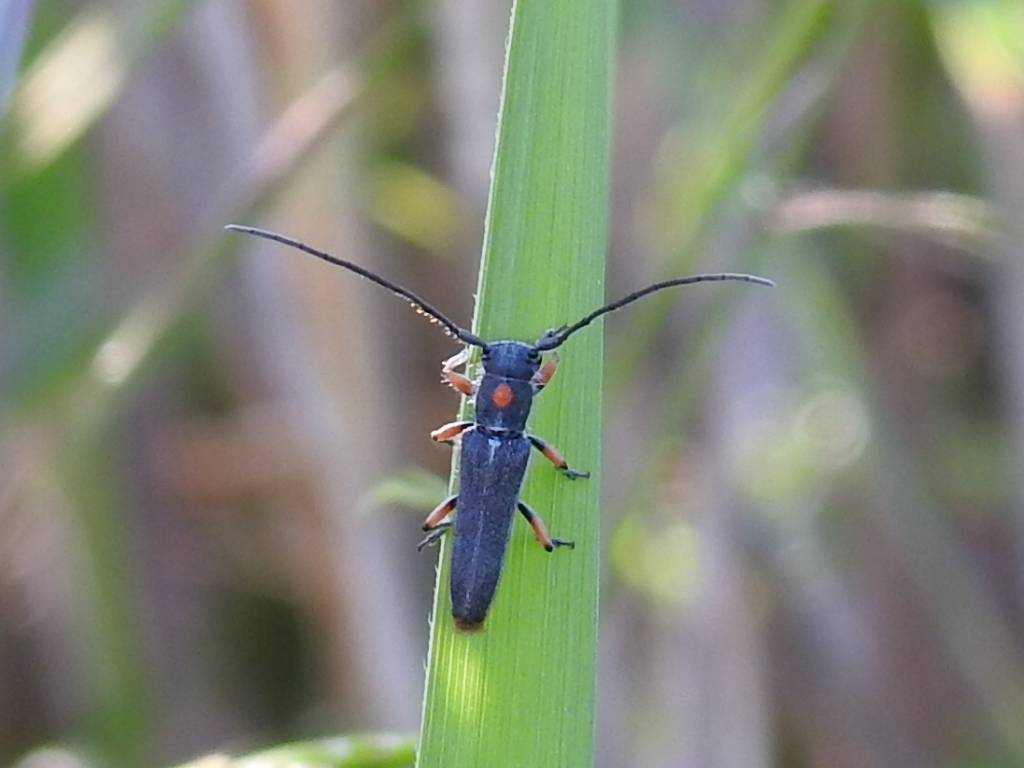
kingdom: Animalia
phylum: Arthropoda
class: Insecta
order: Coleoptera
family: Cerambycidae
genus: Phytoecia
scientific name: Phytoecia virgula
